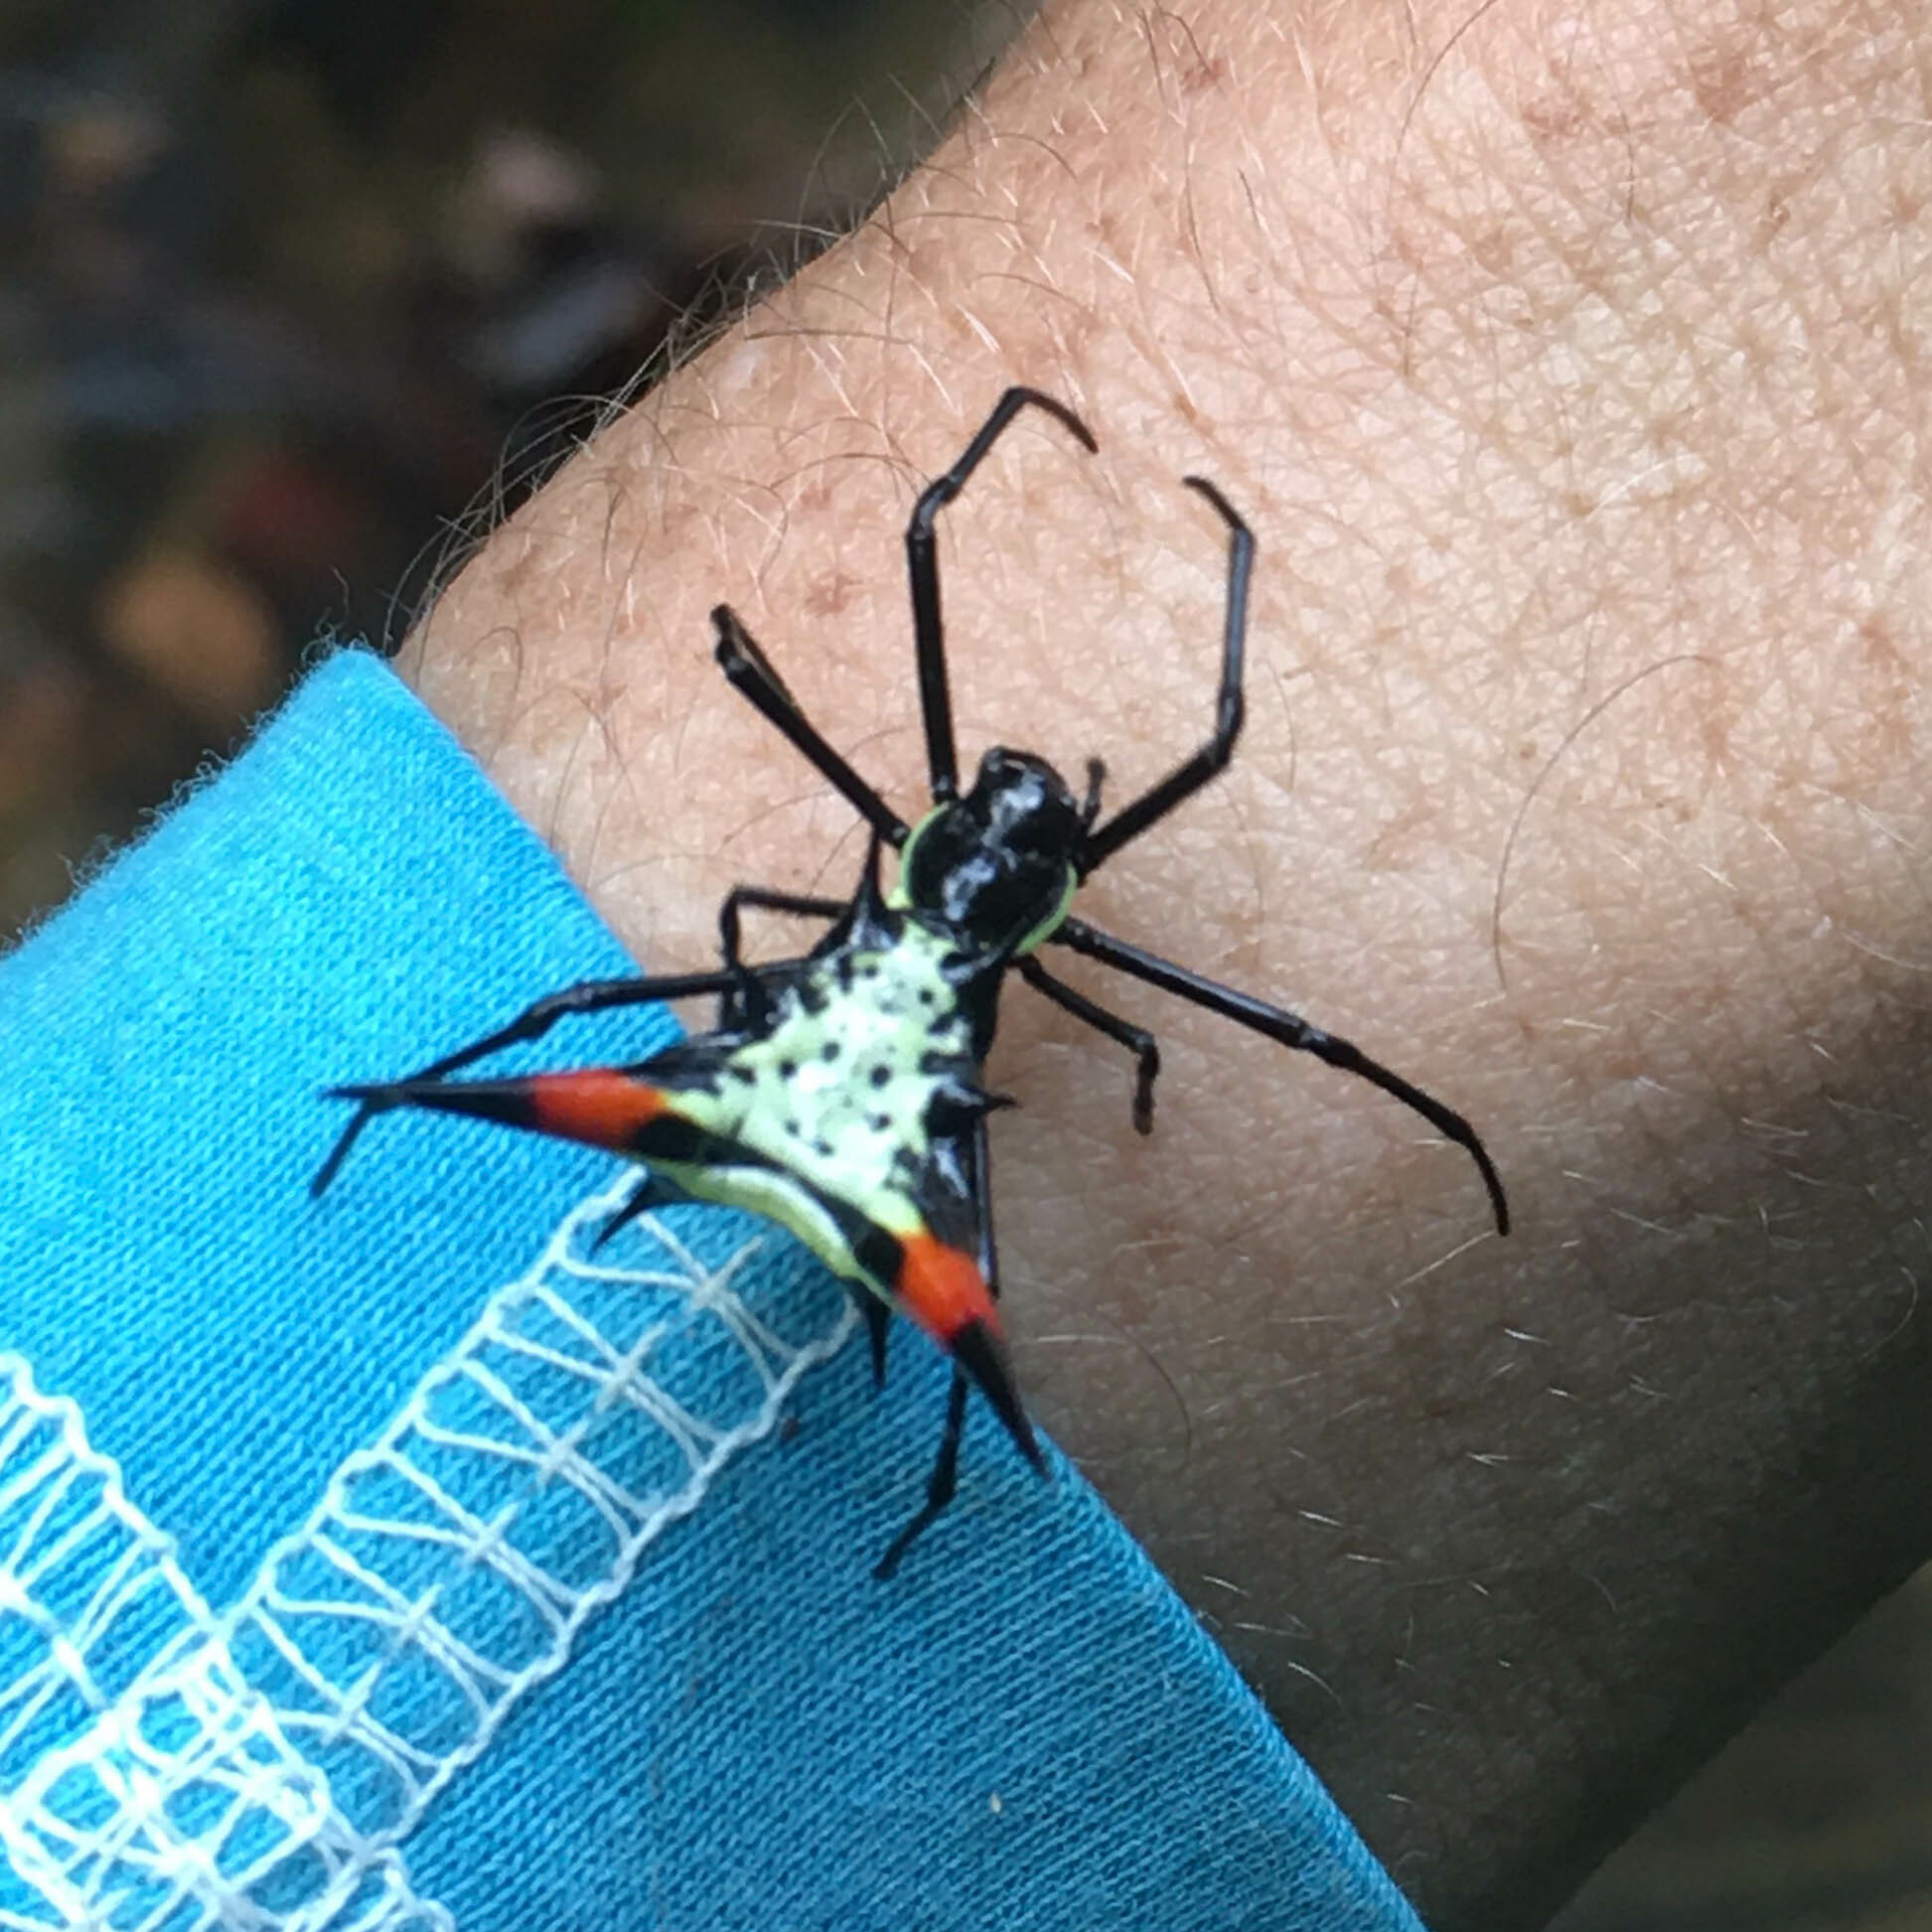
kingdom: Animalia
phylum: Arthropoda
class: Arachnida
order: Araneae
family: Araneidae
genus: Micrathena
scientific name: Micrathena schreibersi
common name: Orb weavers
